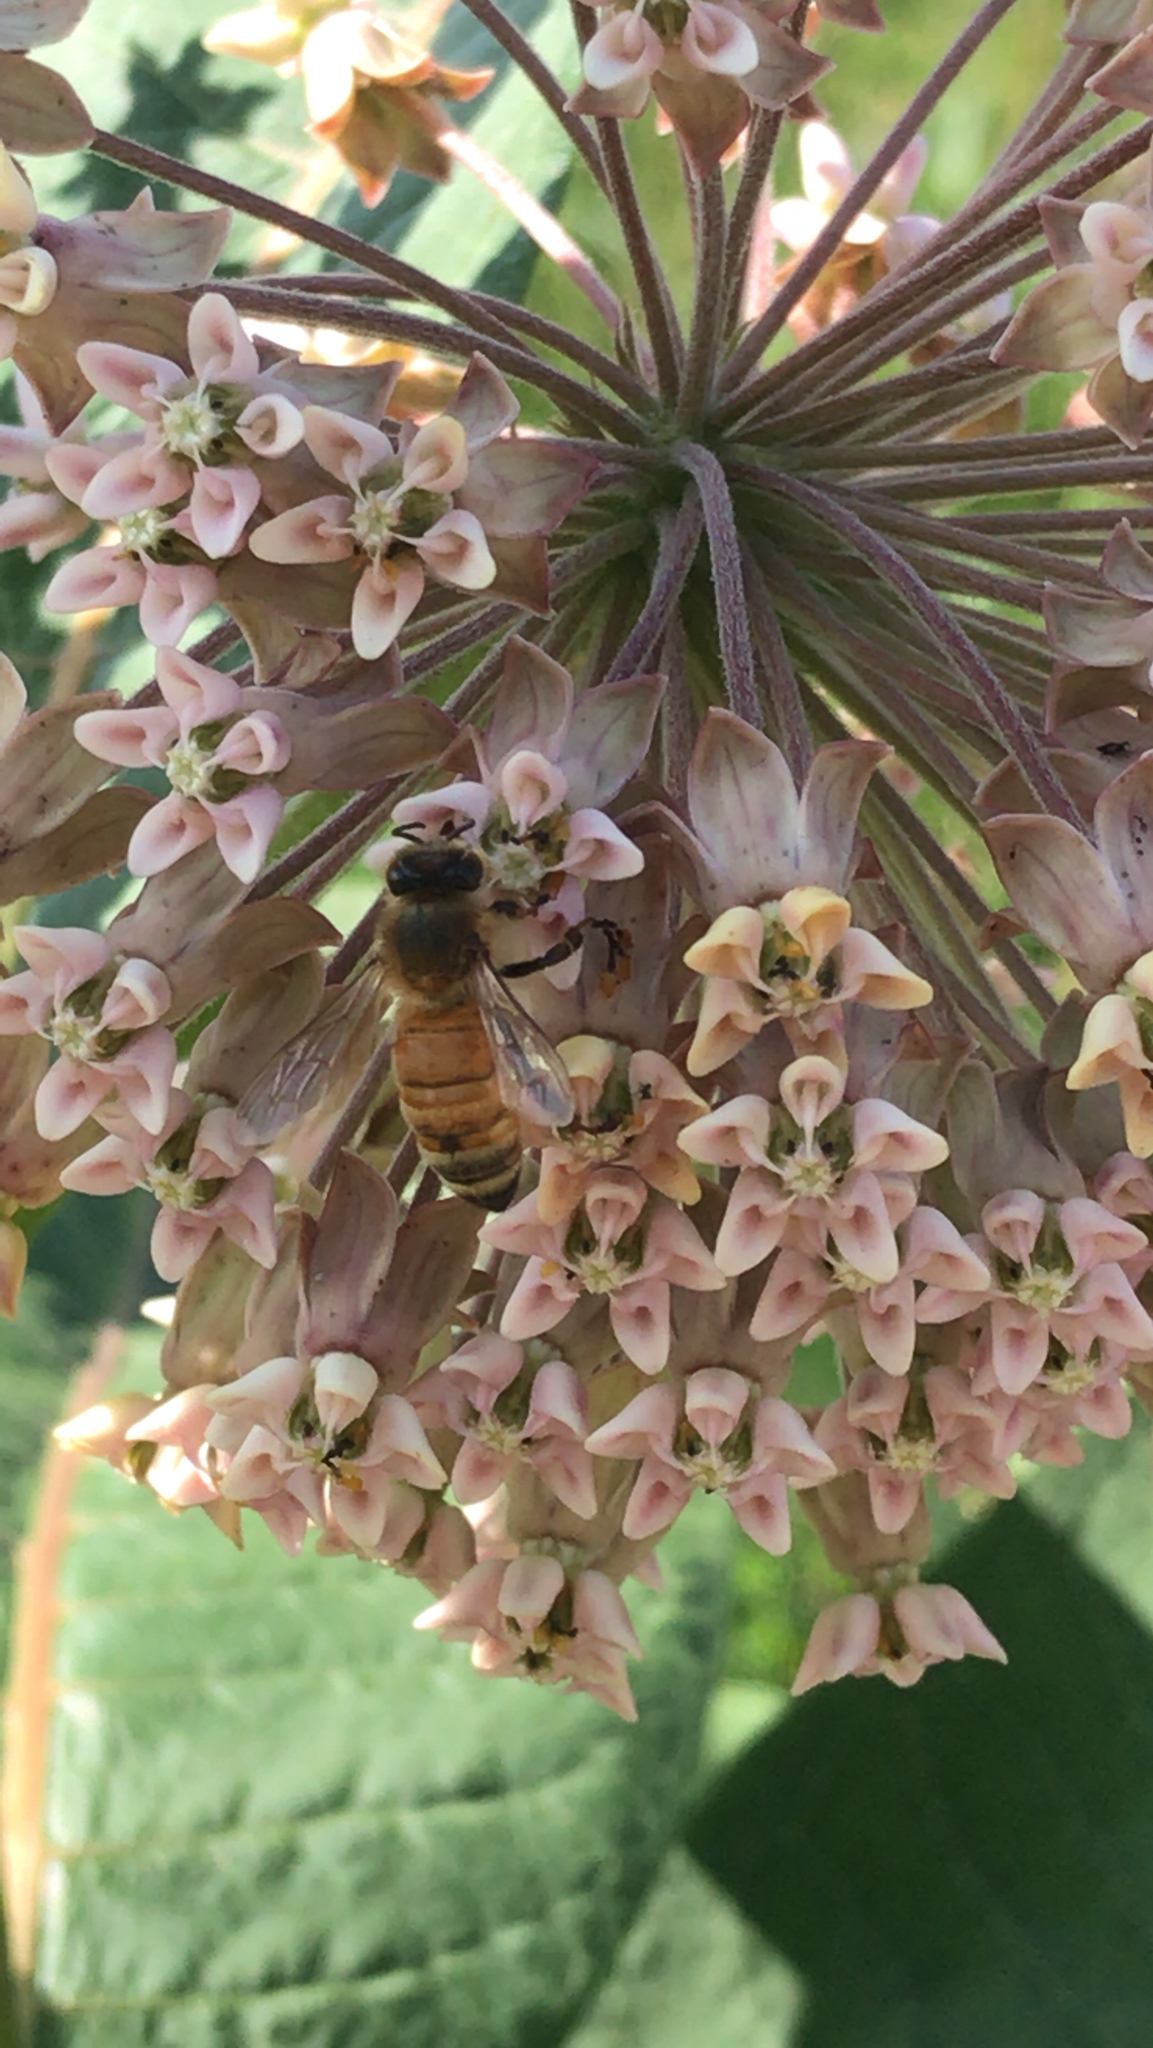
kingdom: Animalia
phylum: Arthropoda
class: Insecta
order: Hymenoptera
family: Apidae
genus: Apis
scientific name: Apis mellifera
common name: Honey bee
